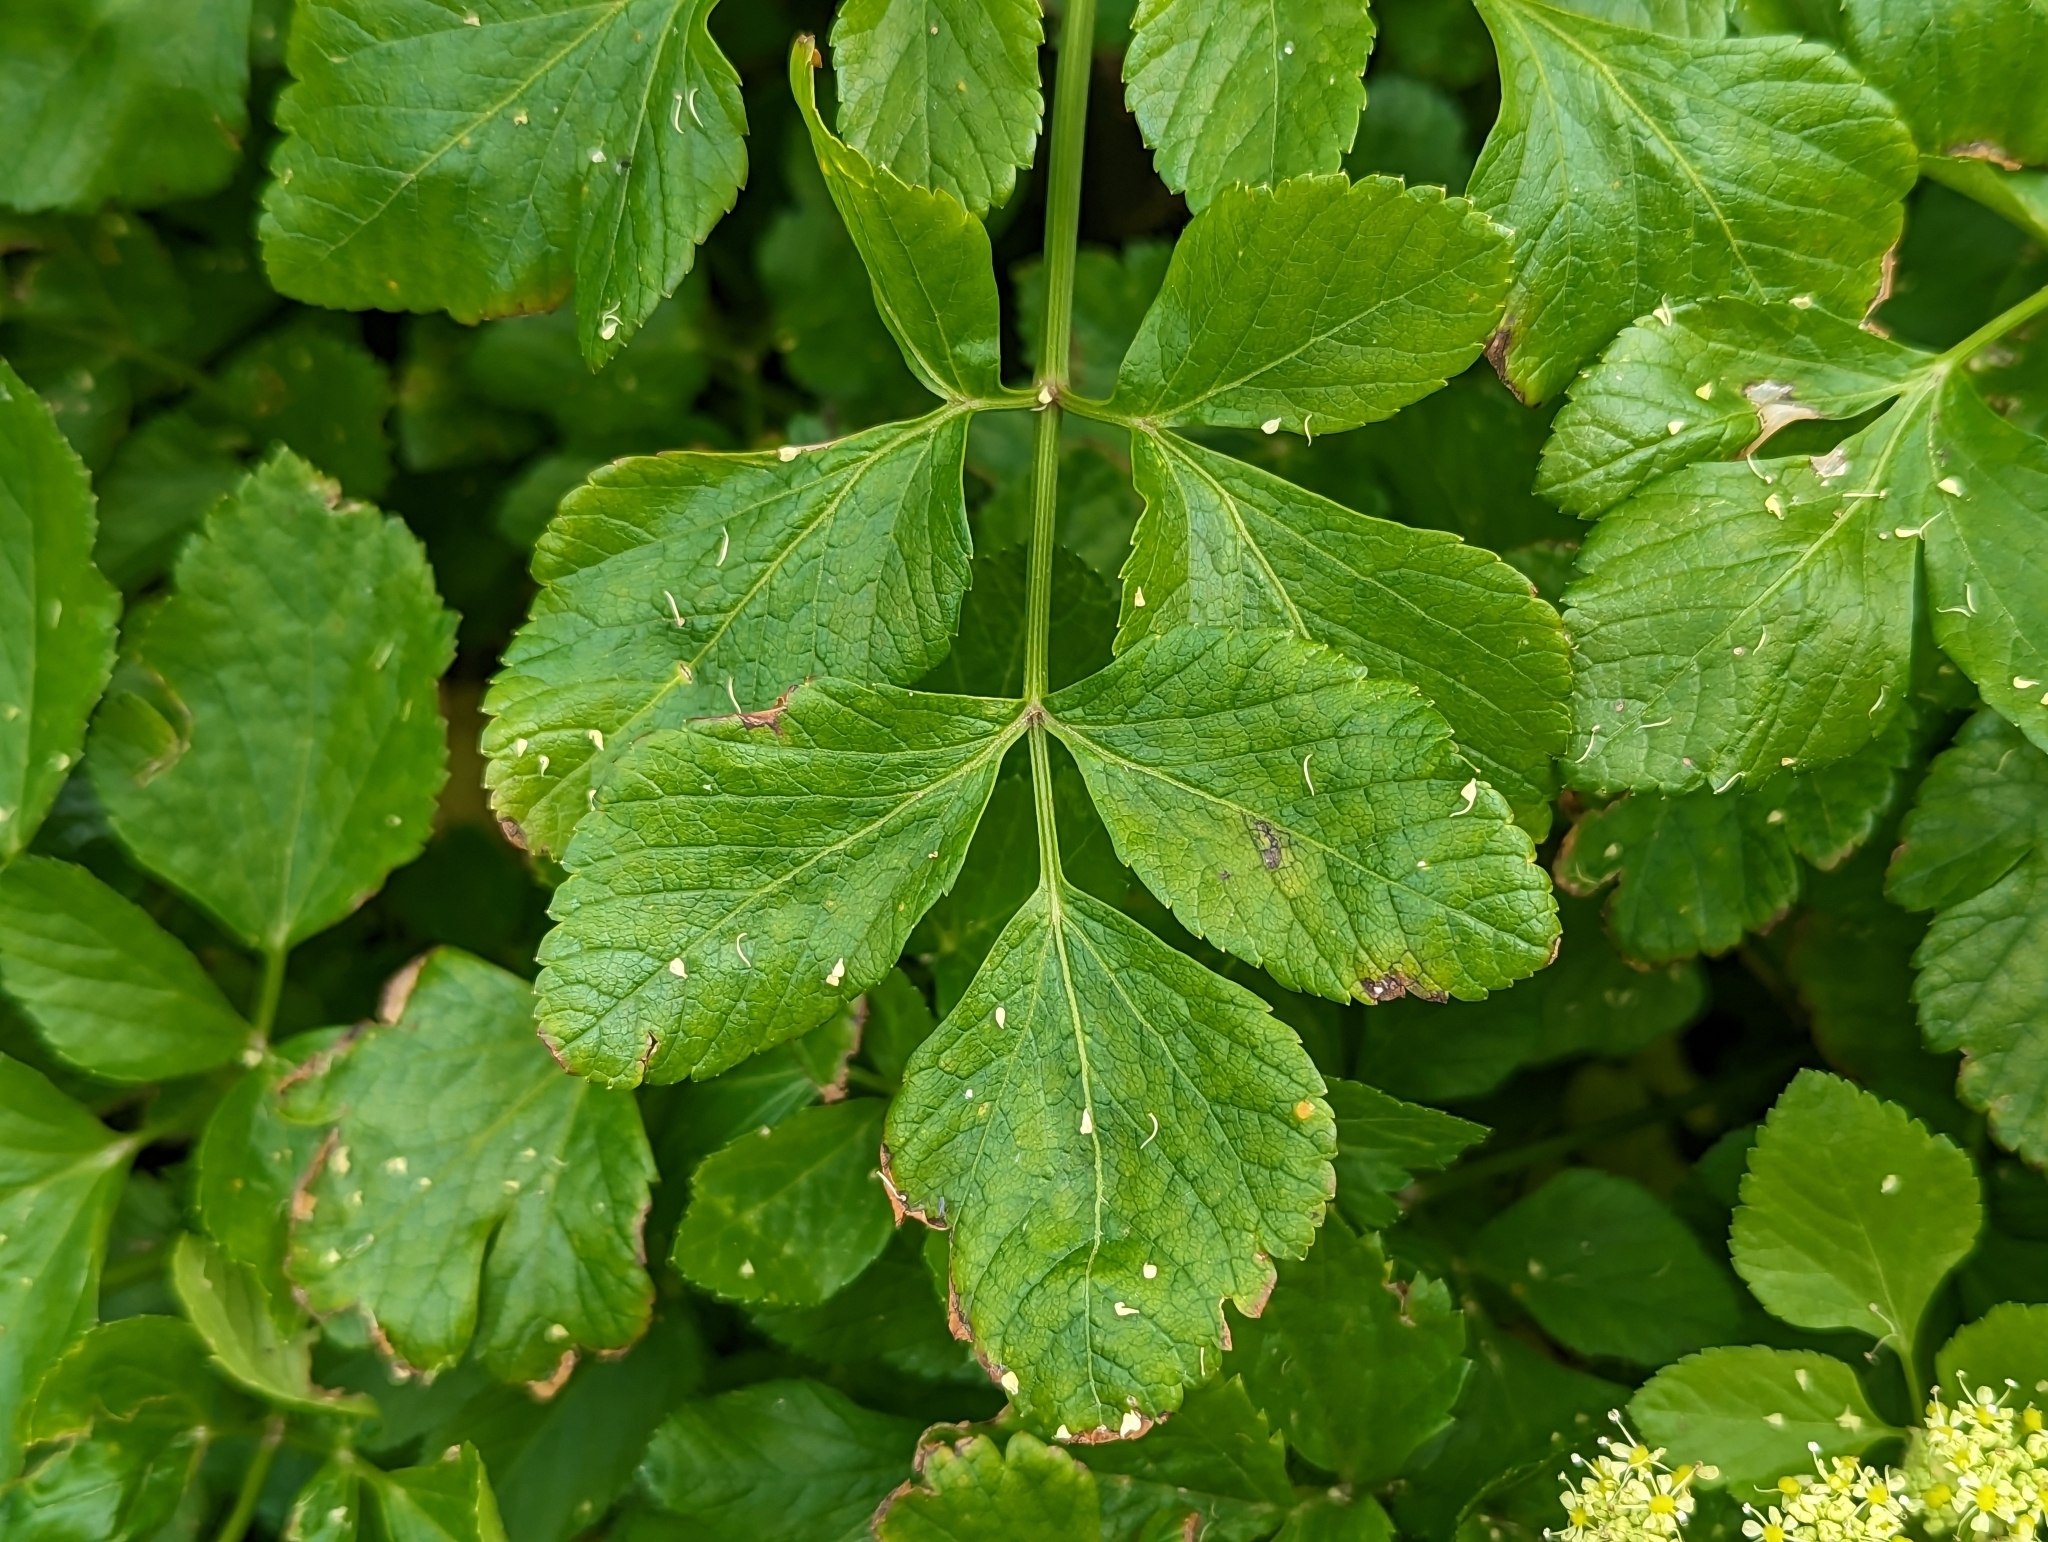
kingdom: Plantae
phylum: Tracheophyta
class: Magnoliopsida
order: Apiales
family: Apiaceae
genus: Smyrnium
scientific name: Smyrnium olusatrum
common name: Alexanders
